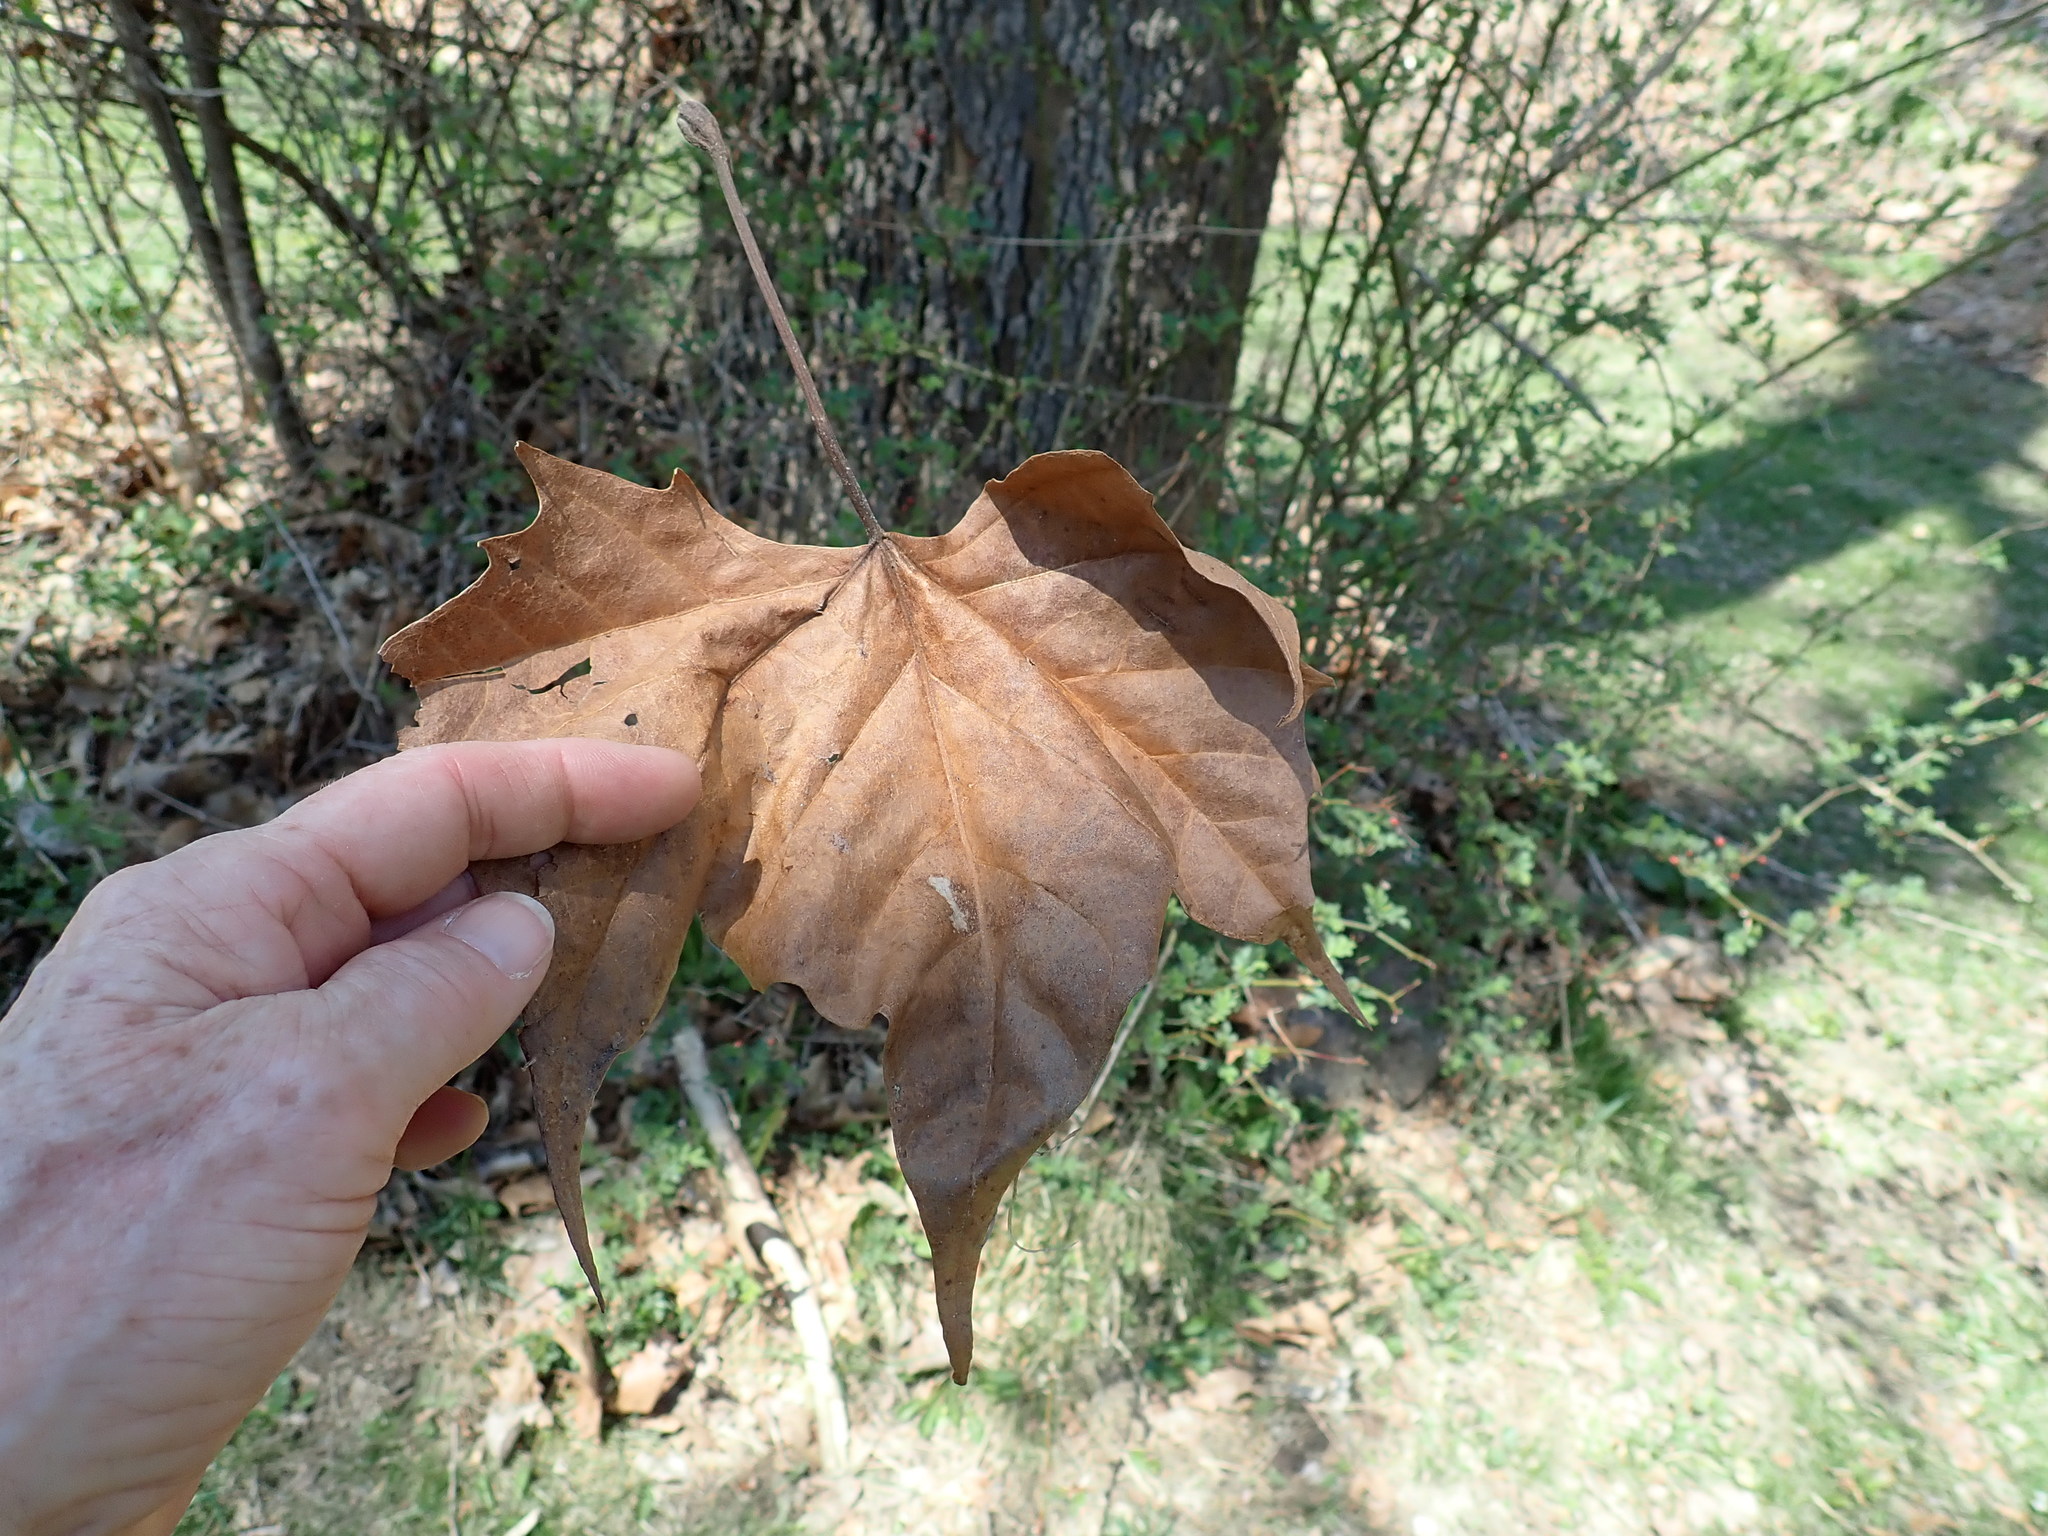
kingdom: Plantae
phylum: Tracheophyta
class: Magnoliopsida
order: Proteales
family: Platanaceae
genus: Platanus
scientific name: Platanus occidentalis
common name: American sycamore
